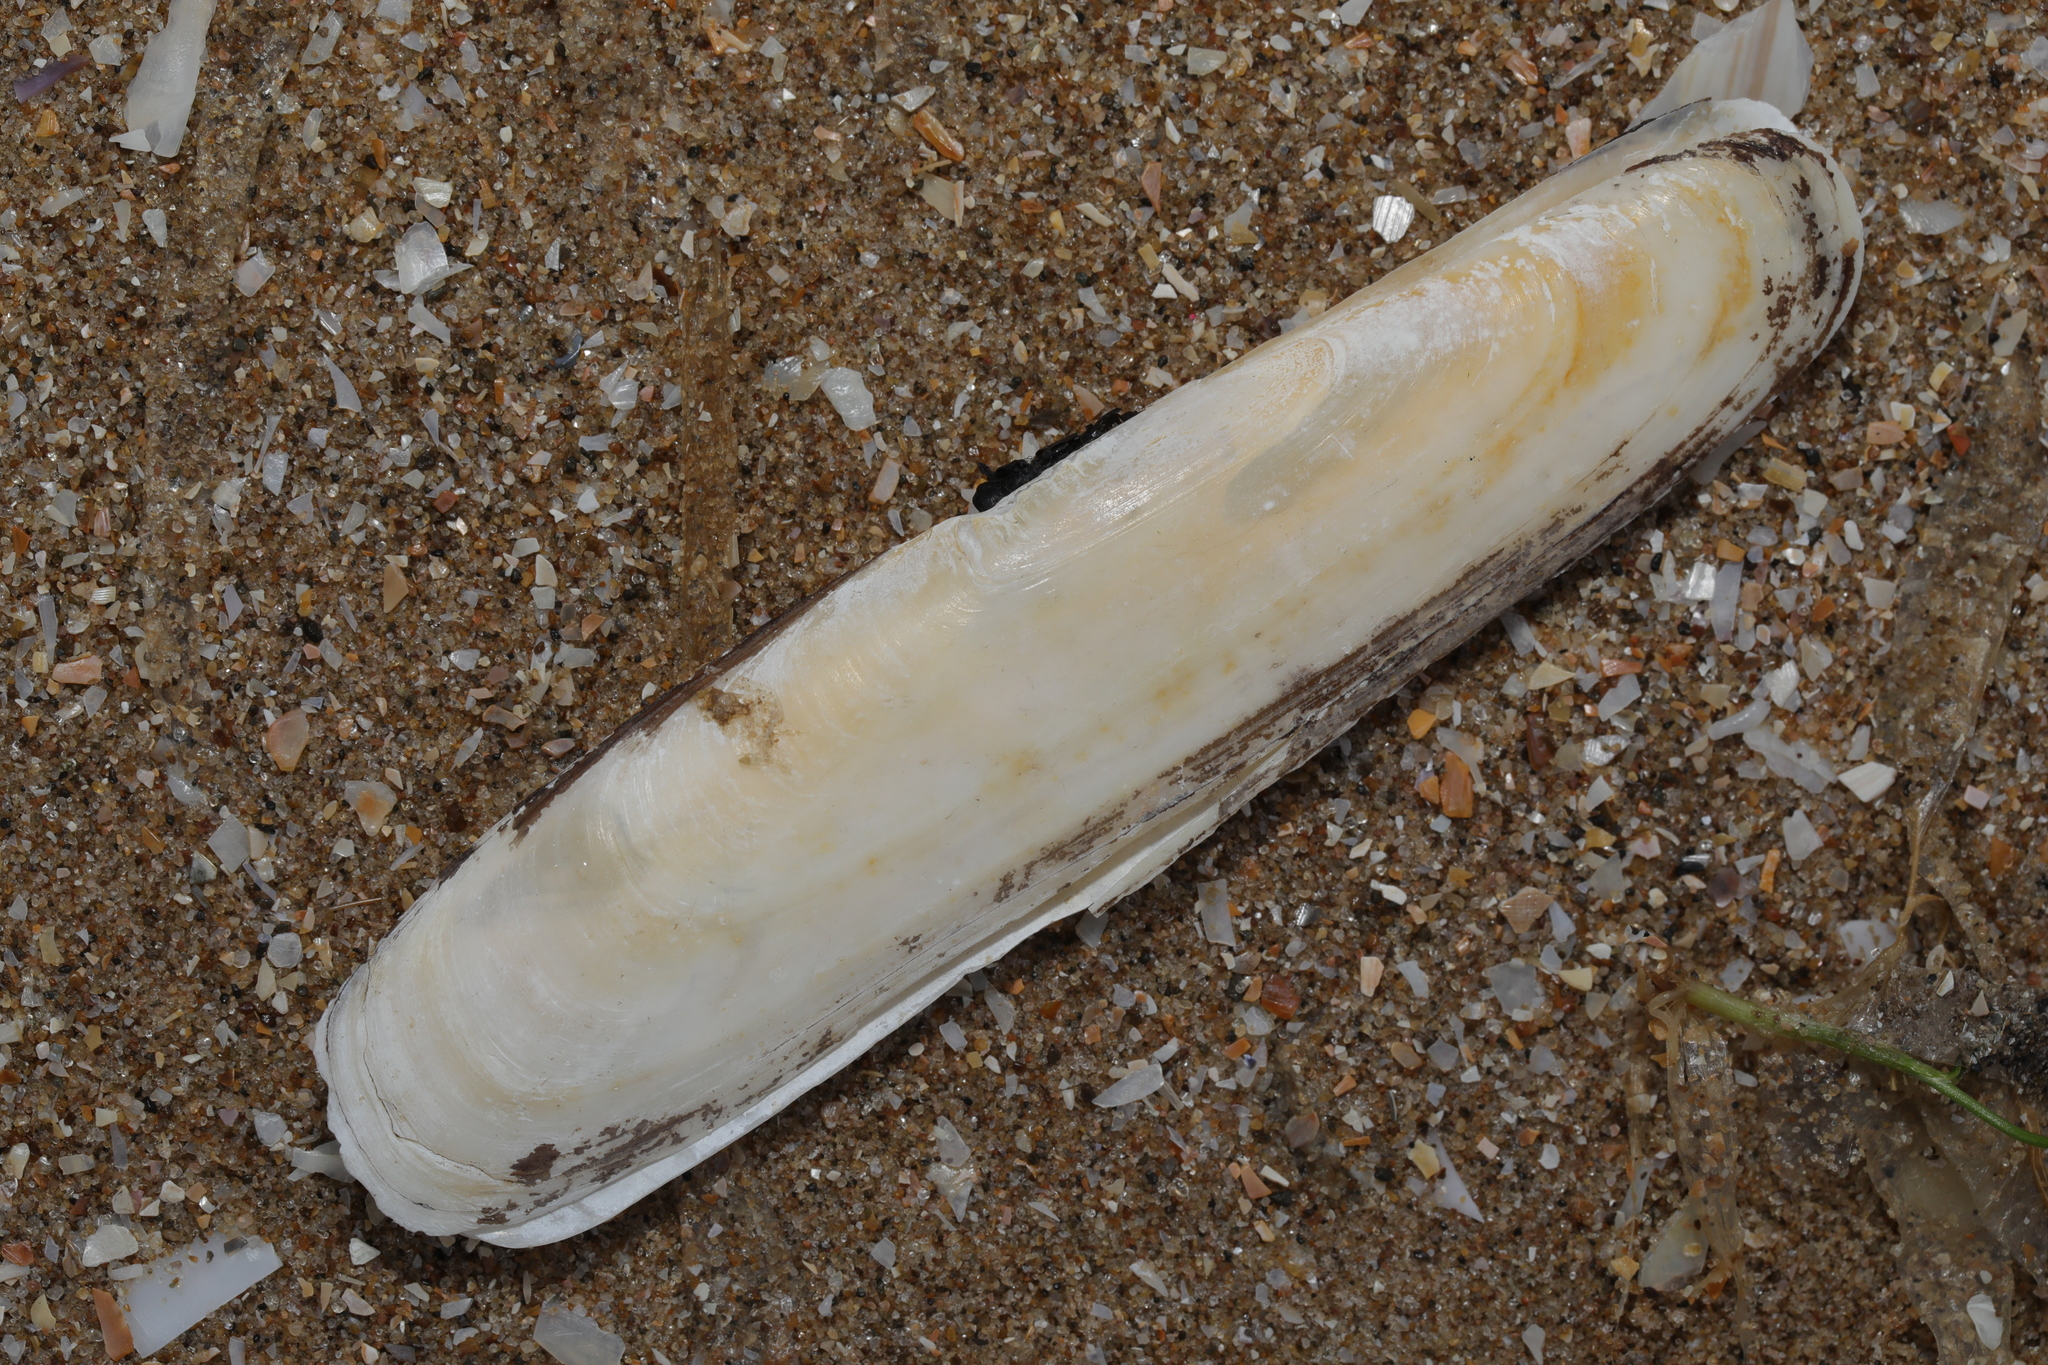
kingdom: Animalia
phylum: Mollusca
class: Bivalvia
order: Adapedonta
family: Pharidae
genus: Pharus
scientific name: Pharus legumen
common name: Bean razor clam
